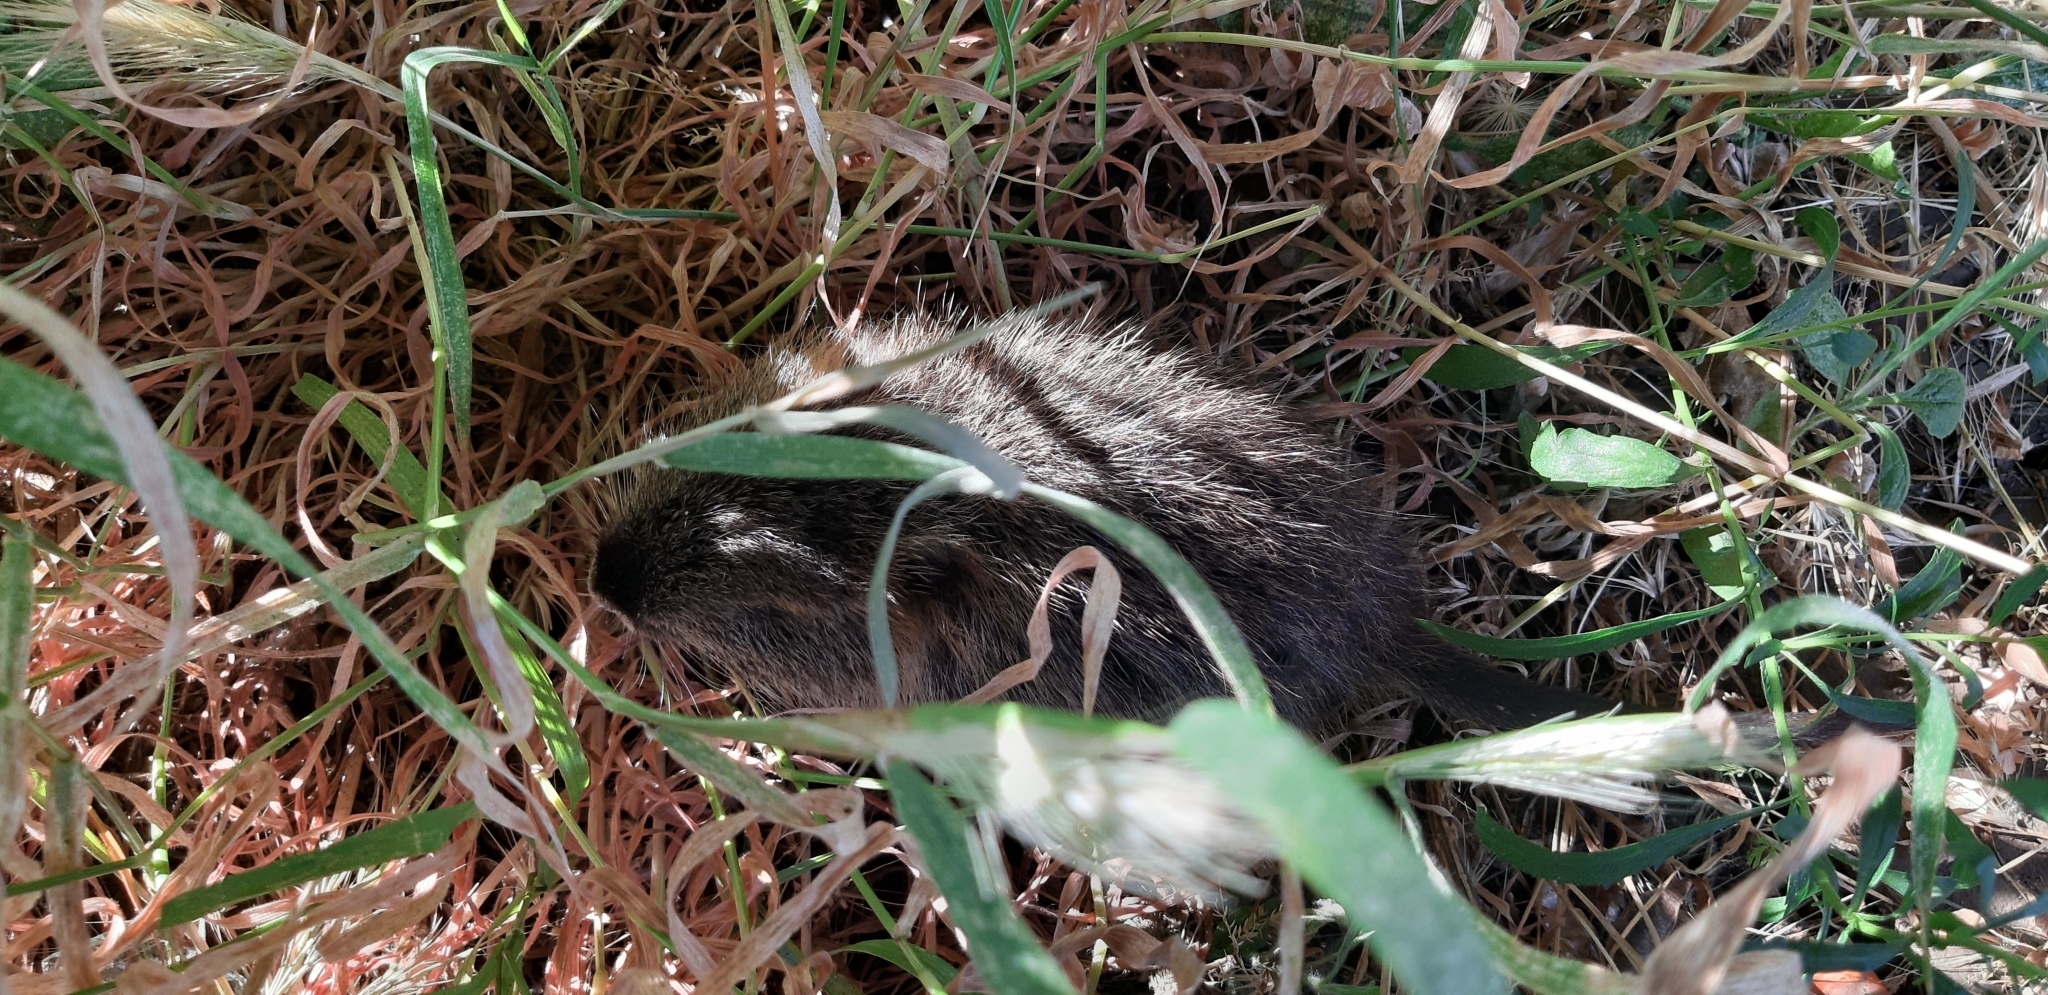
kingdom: Animalia
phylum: Chordata
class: Mammalia
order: Rodentia
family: Myocastoridae
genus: Myocastor
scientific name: Myocastor coypus
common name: Coypu
